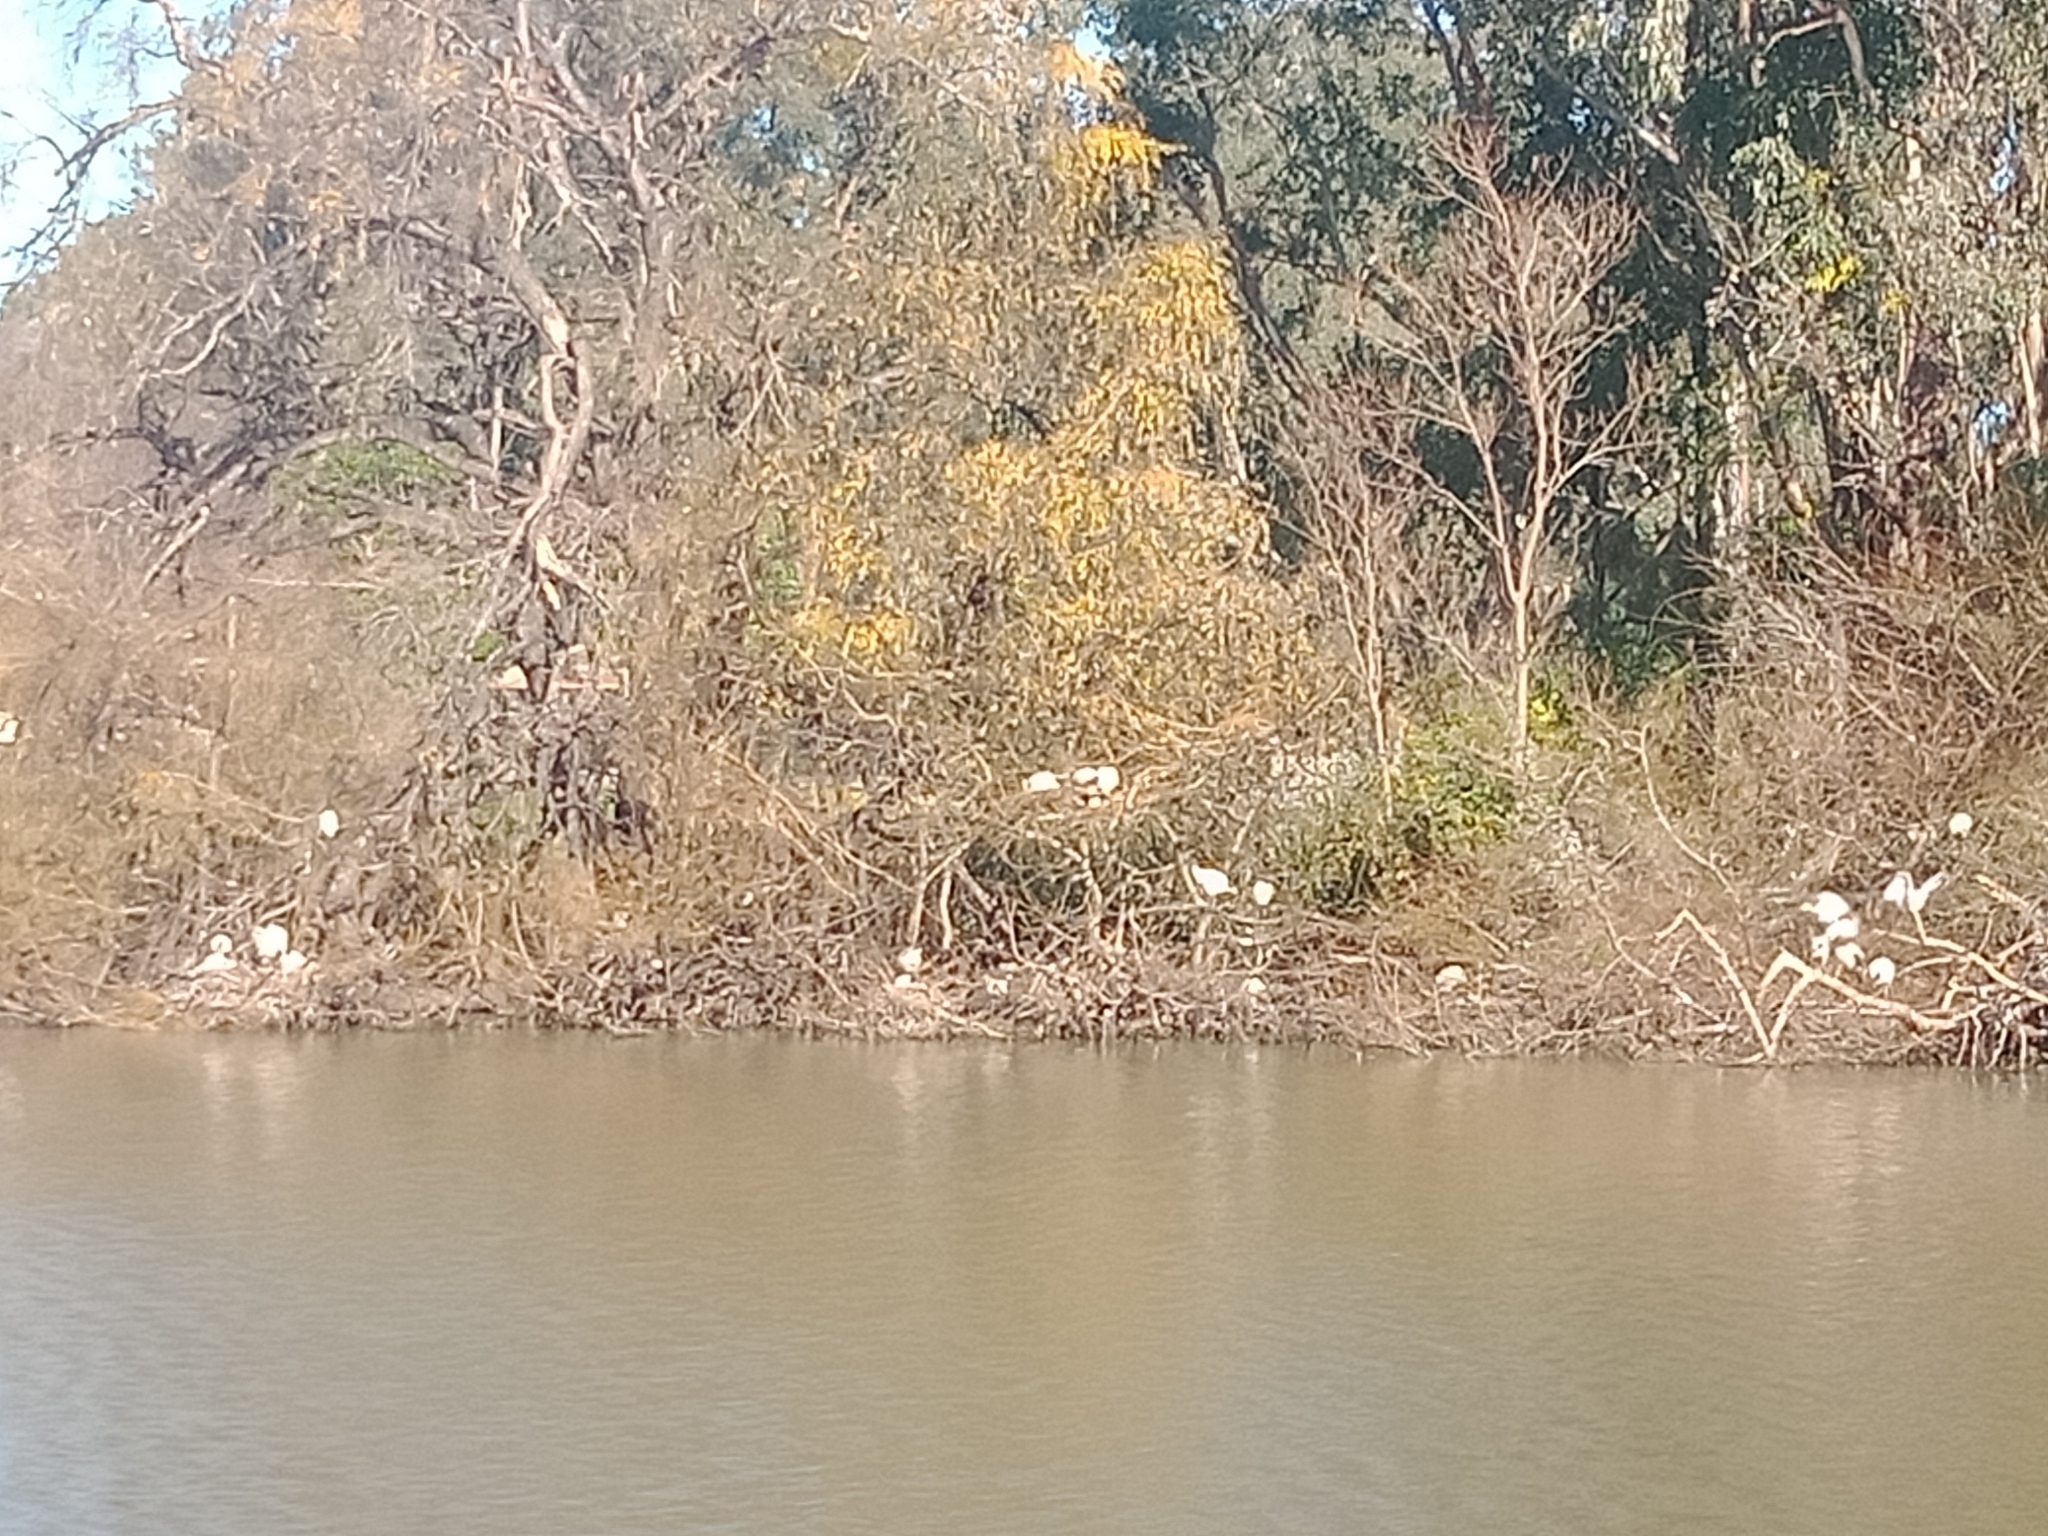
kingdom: Animalia
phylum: Chordata
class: Aves
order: Pelecaniformes
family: Threskiornithidae
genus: Threskiornis
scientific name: Threskiornis molucca
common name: Australian white ibis
